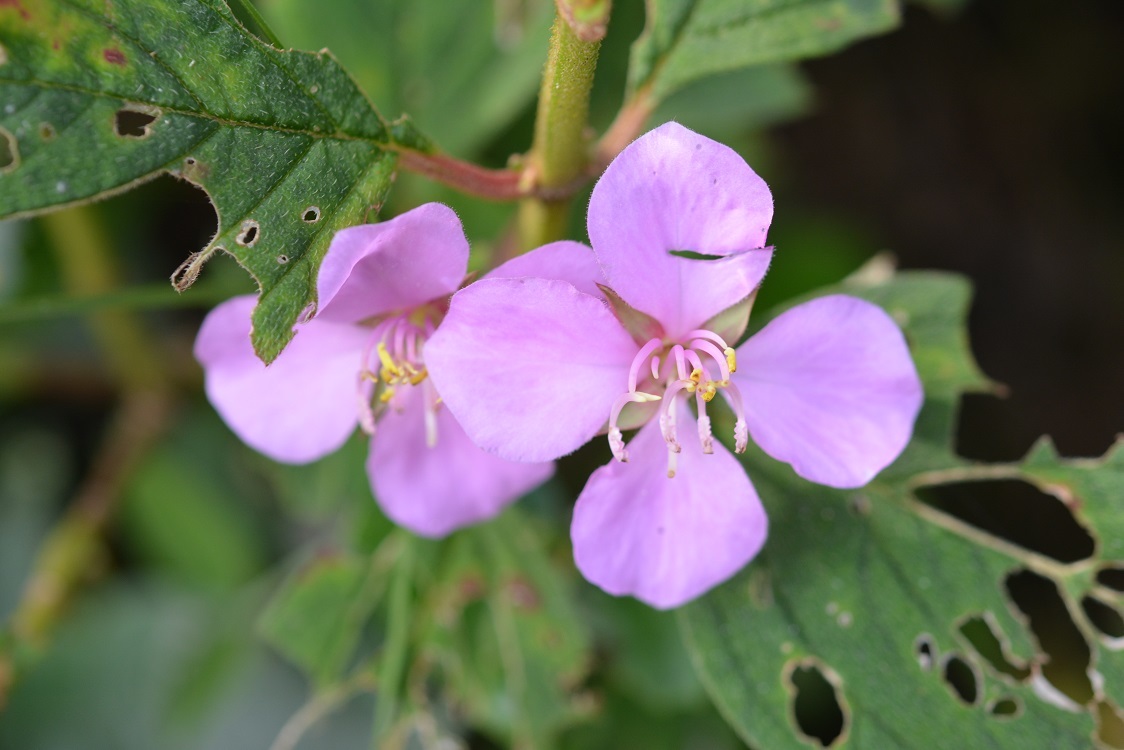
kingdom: Plantae
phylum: Tracheophyta
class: Magnoliopsida
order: Myrtales
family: Melastomataceae
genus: Heterocentron
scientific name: Heterocentron muricatum
